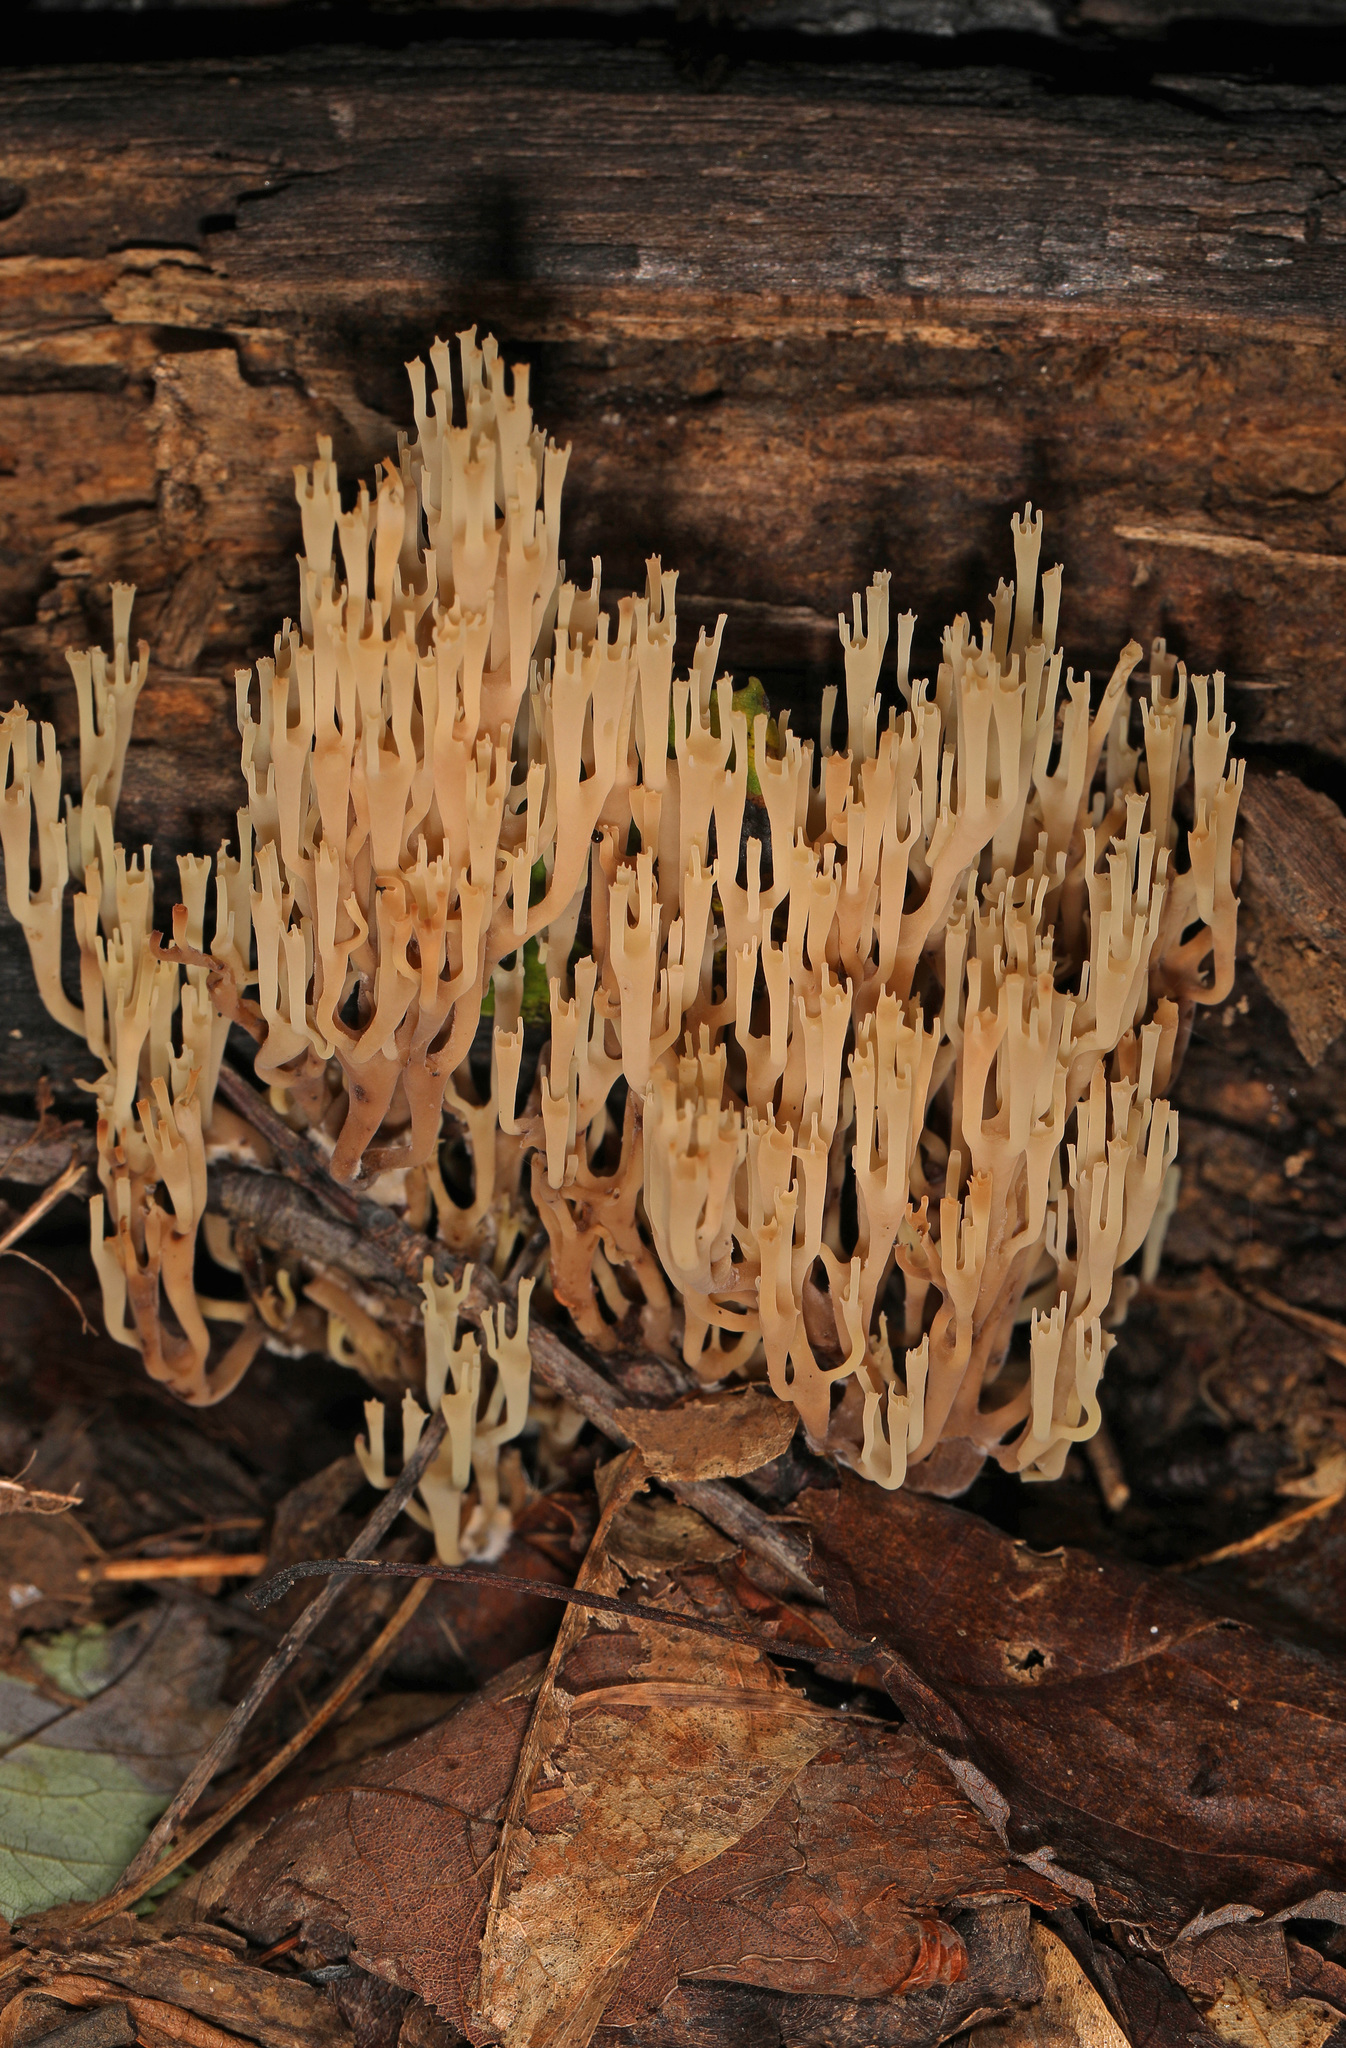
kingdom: Fungi
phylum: Basidiomycota
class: Agaricomycetes
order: Russulales
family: Auriscalpiaceae
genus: Artomyces
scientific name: Artomyces pyxidatus
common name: Crown-tipped coral fungus
